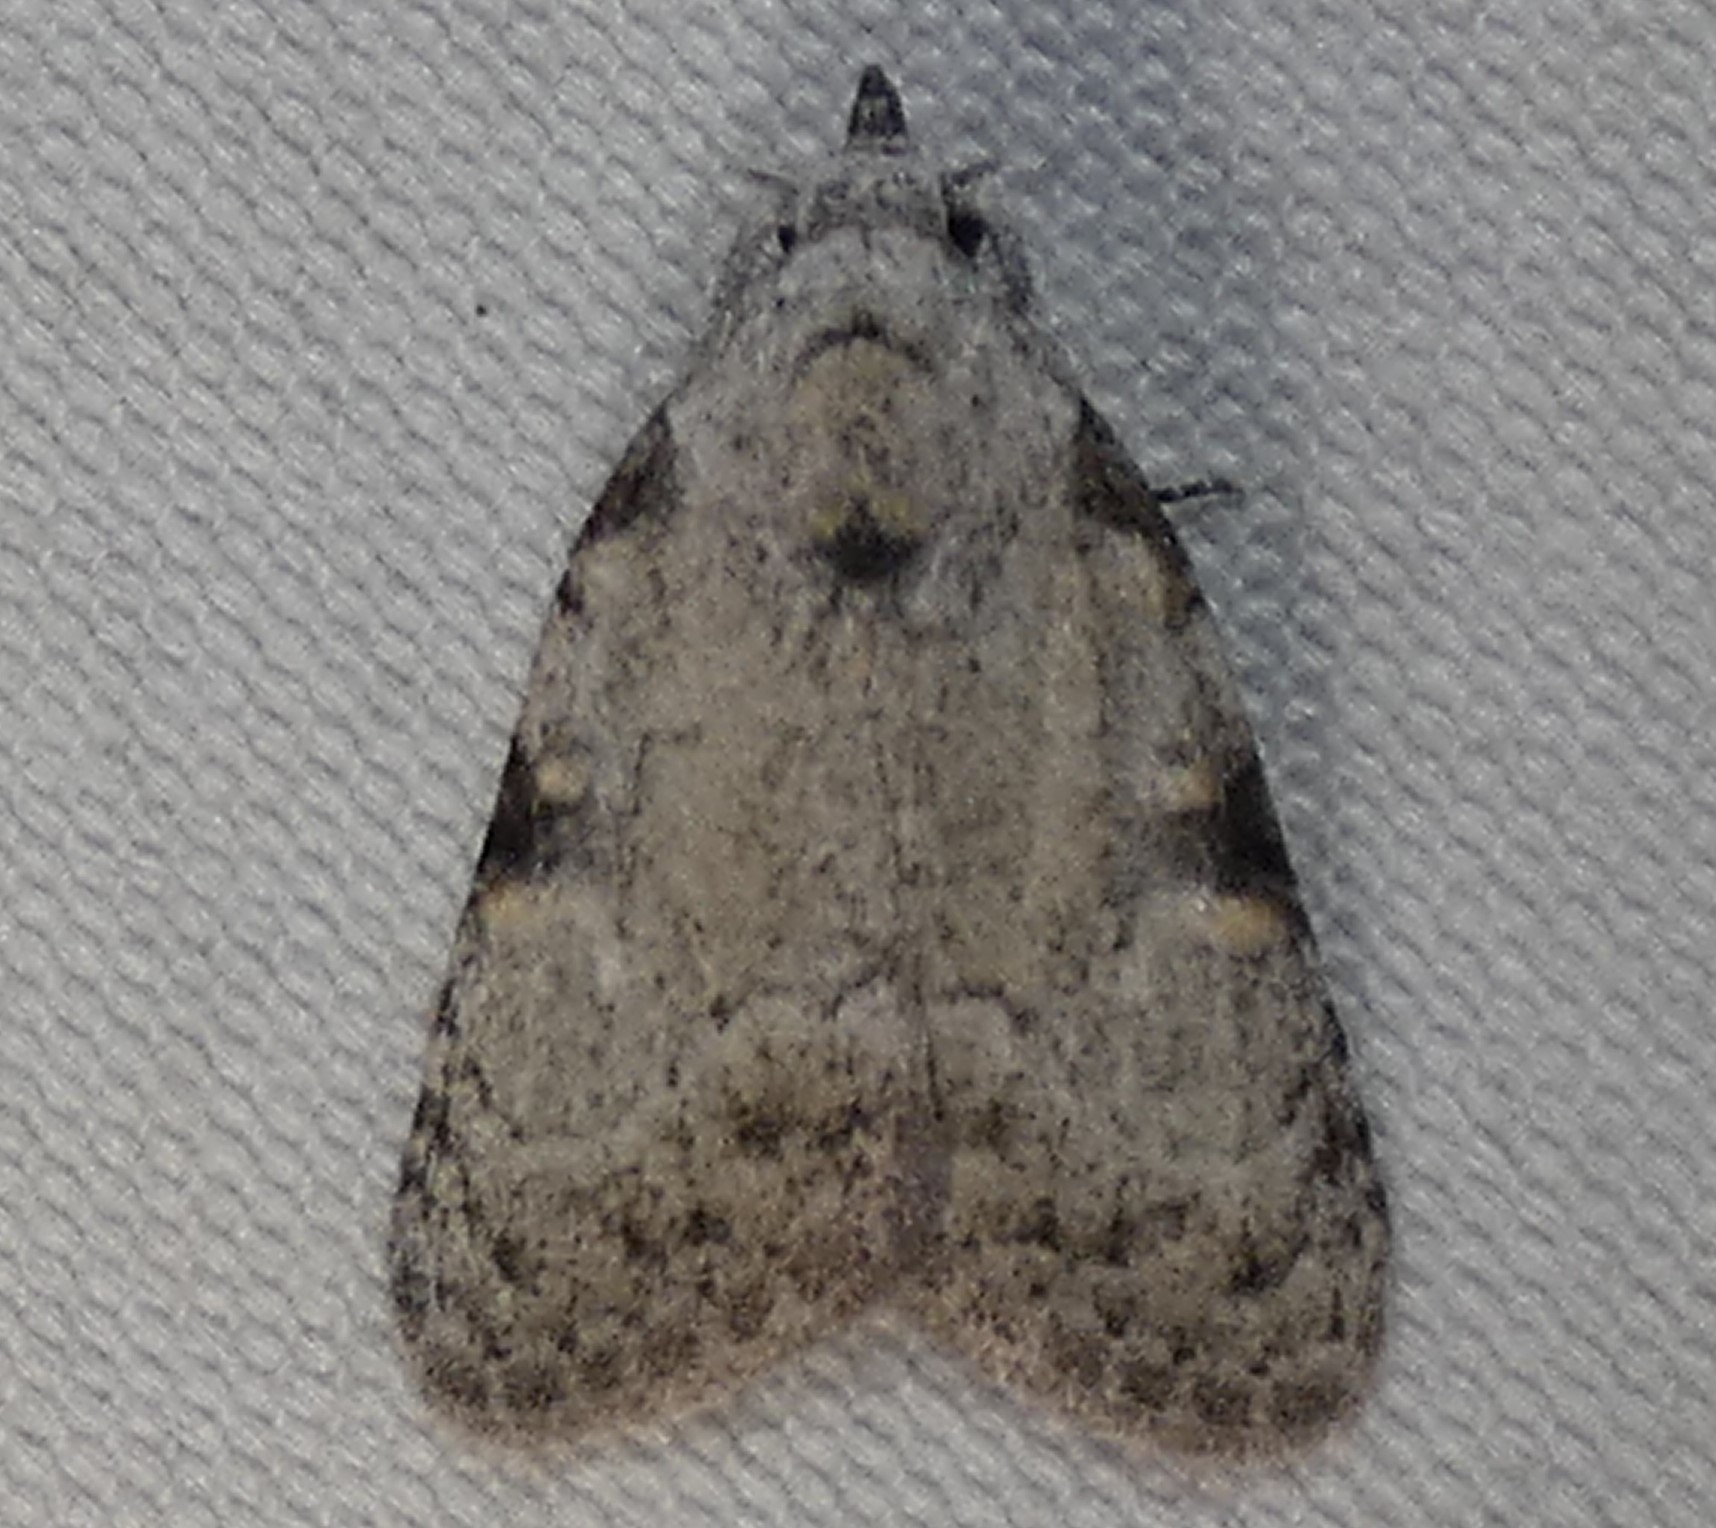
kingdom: Animalia
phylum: Arthropoda
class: Insecta
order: Lepidoptera
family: Nolidae
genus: Meganola
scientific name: Meganola minuscula
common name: Confused meganola moth
